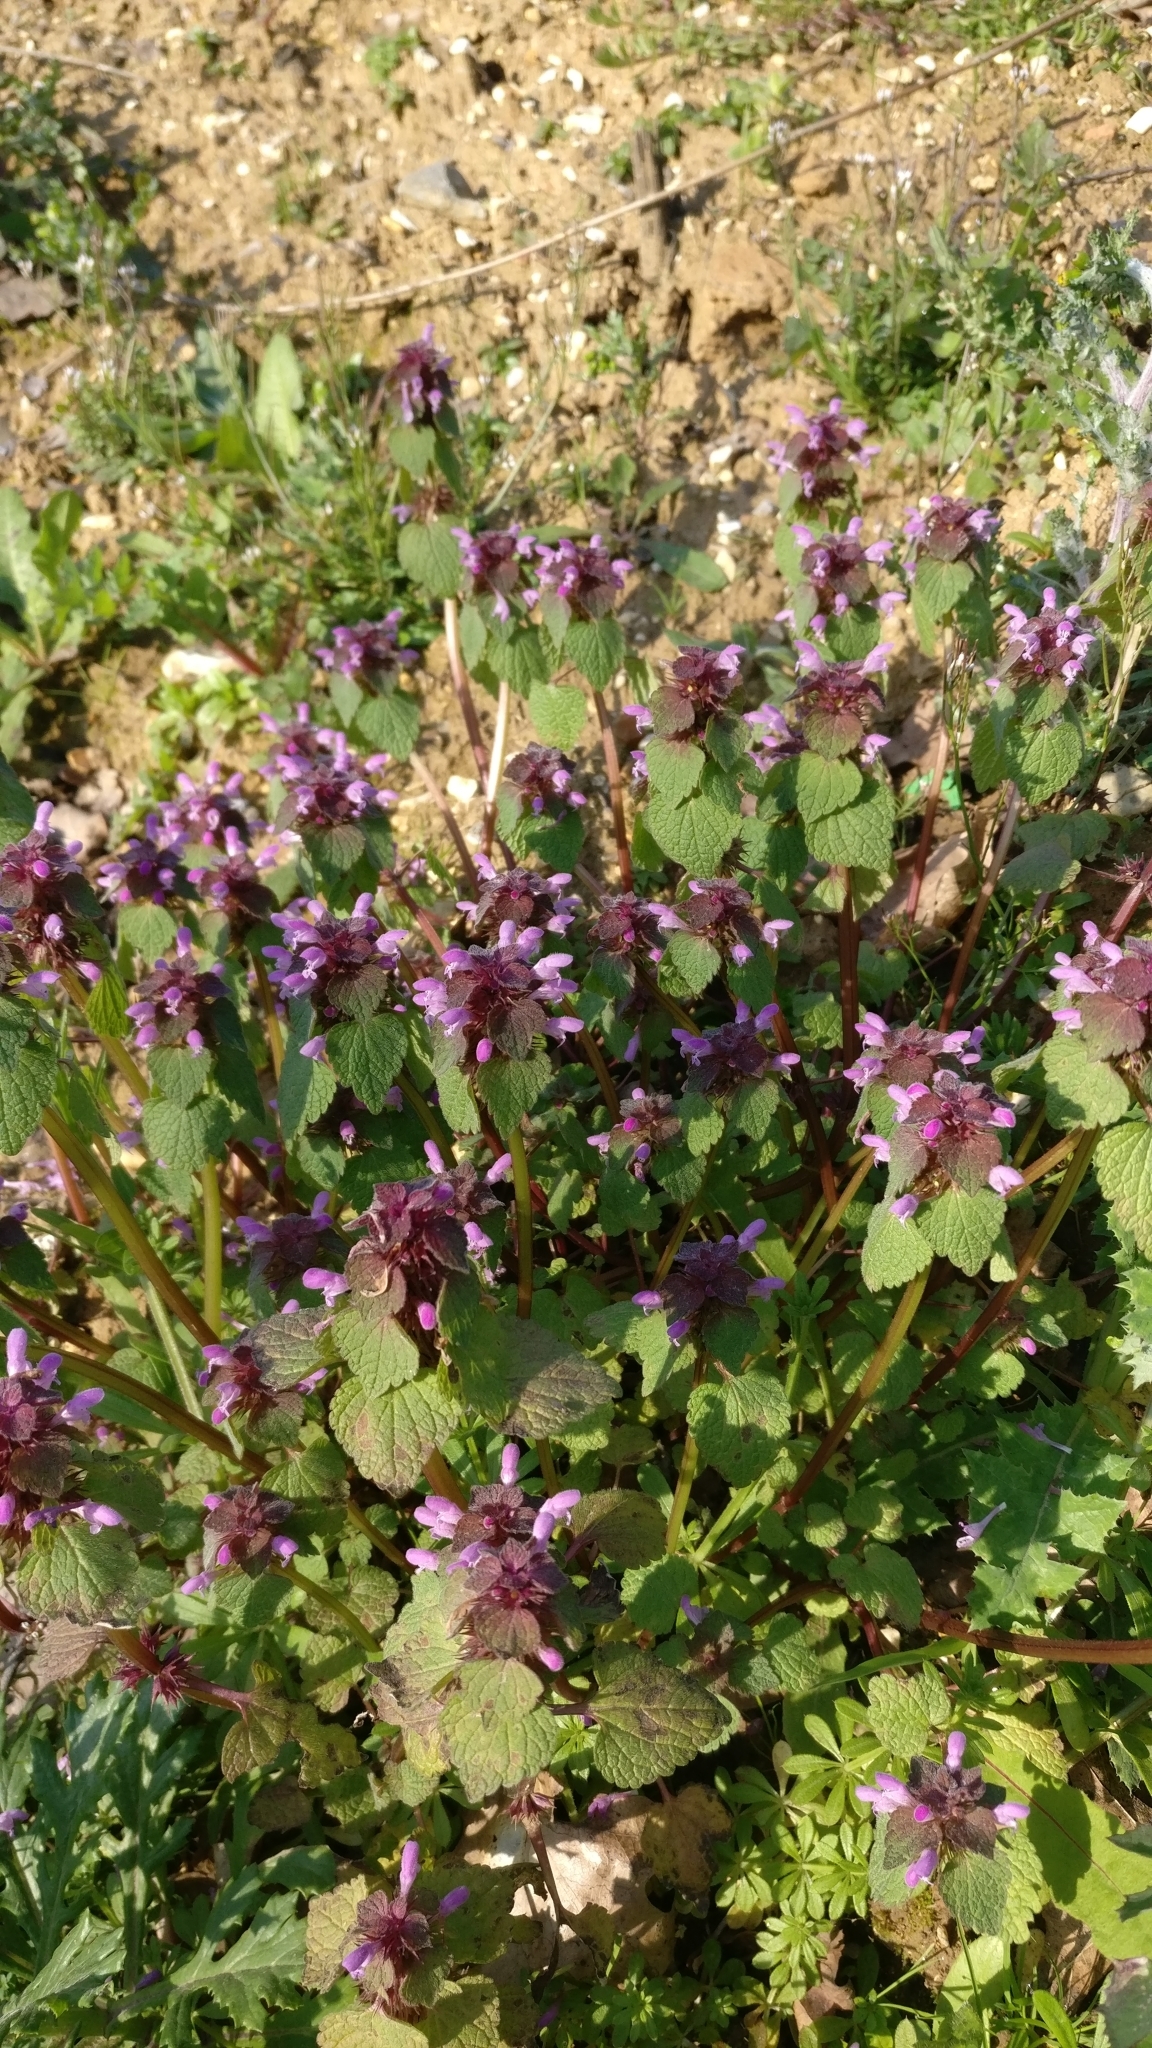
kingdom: Plantae
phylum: Tracheophyta
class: Magnoliopsida
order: Lamiales
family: Lamiaceae
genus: Lamium
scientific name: Lamium purpureum
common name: Red dead-nettle
